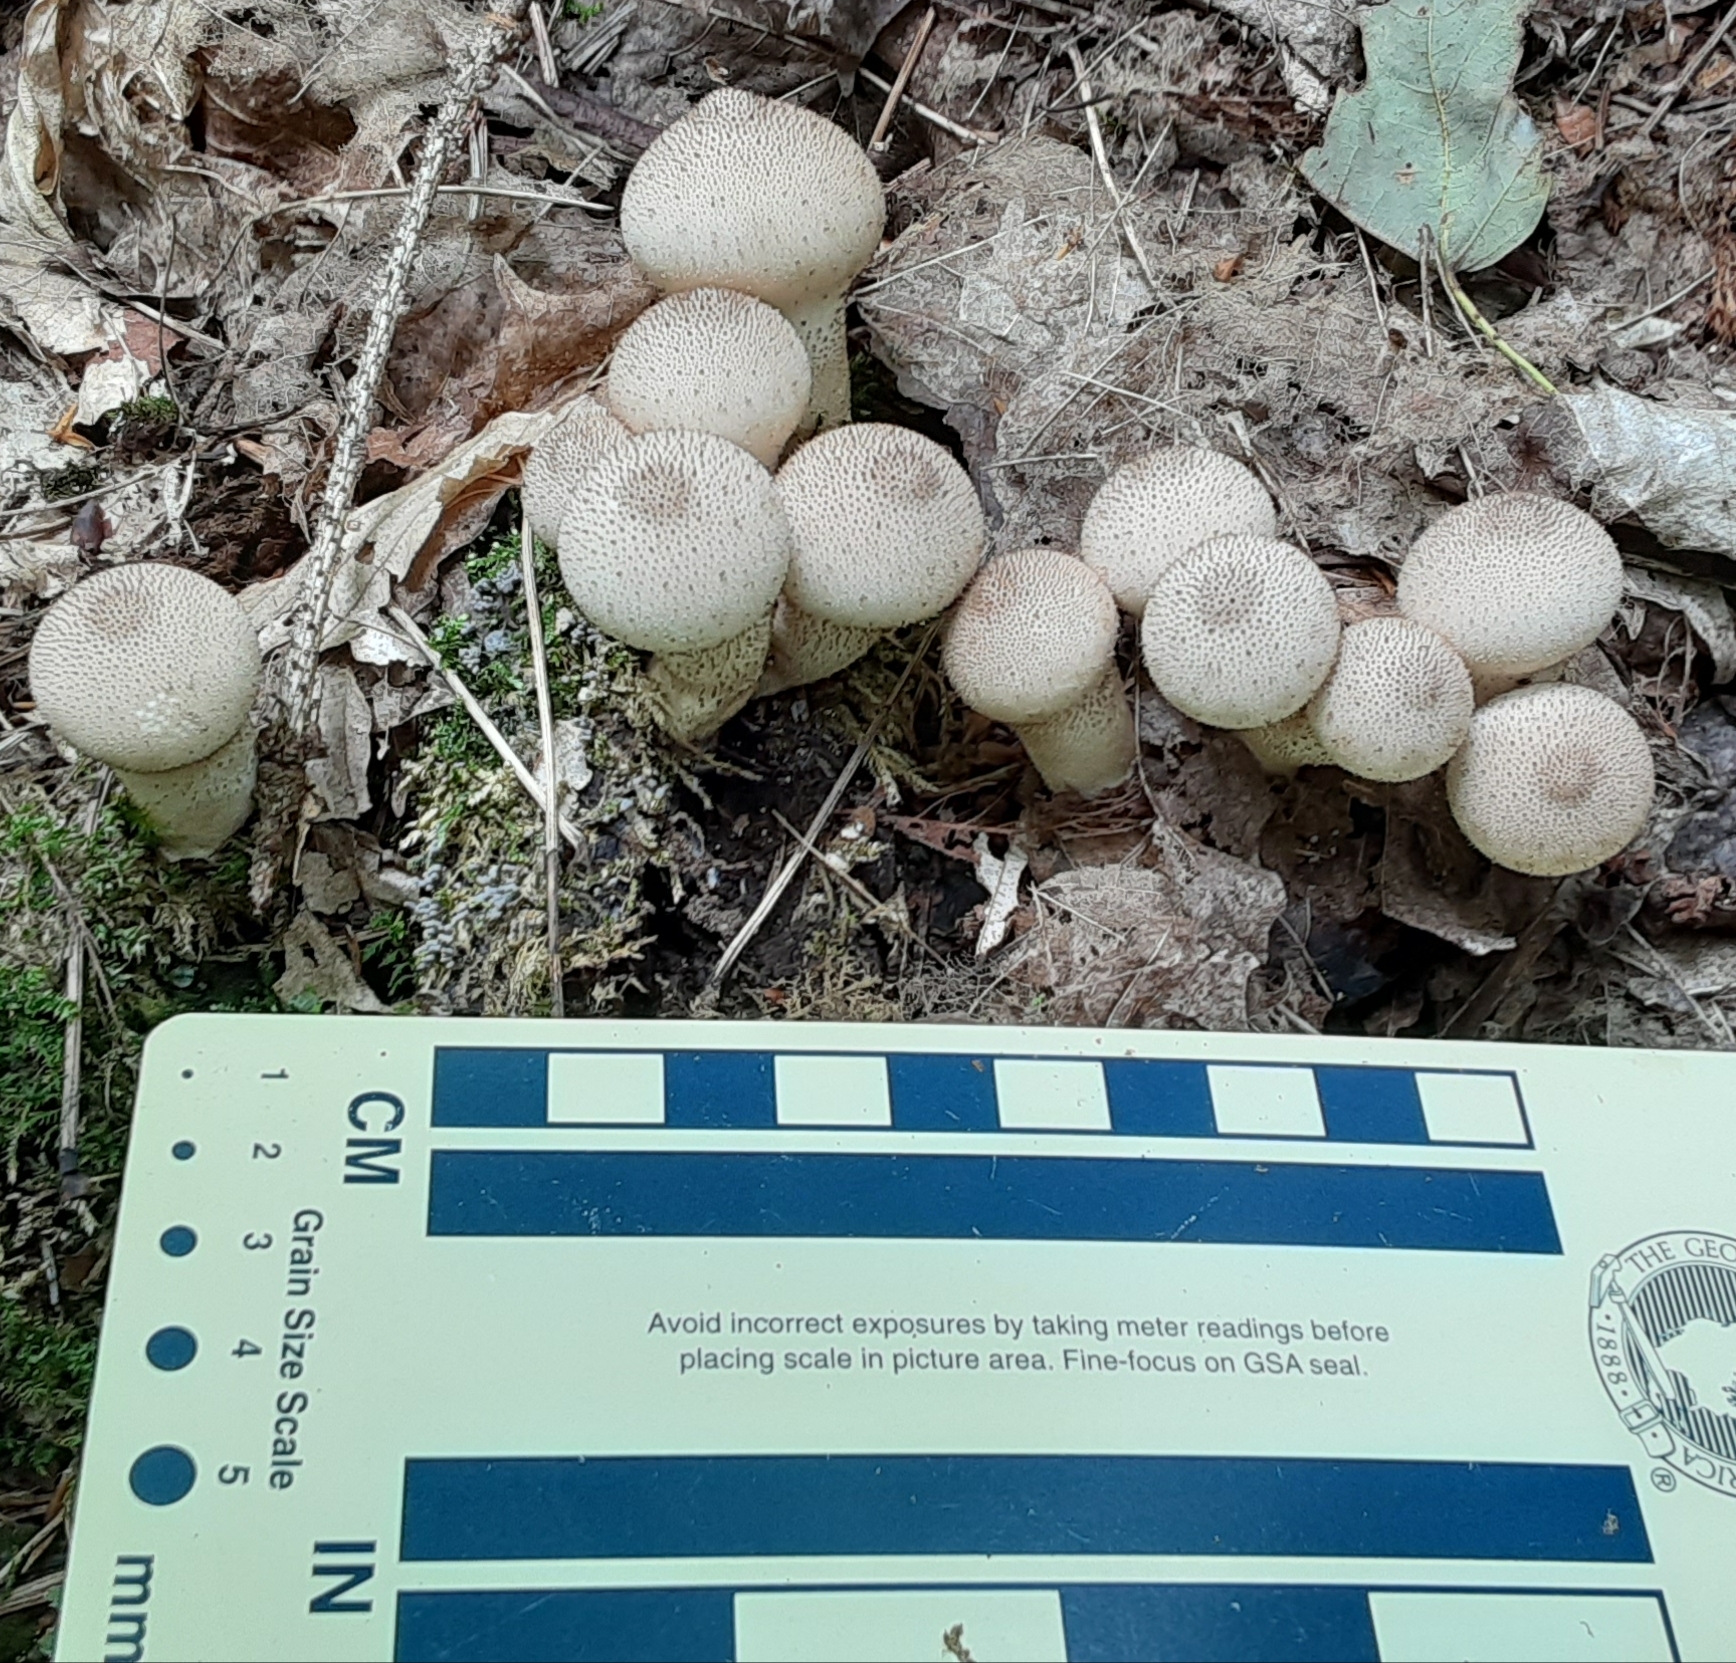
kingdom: Fungi
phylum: Basidiomycota
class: Agaricomycetes
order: Agaricales
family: Lycoperdaceae
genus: Lycoperdon
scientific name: Lycoperdon perlatum
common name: Common puffball
